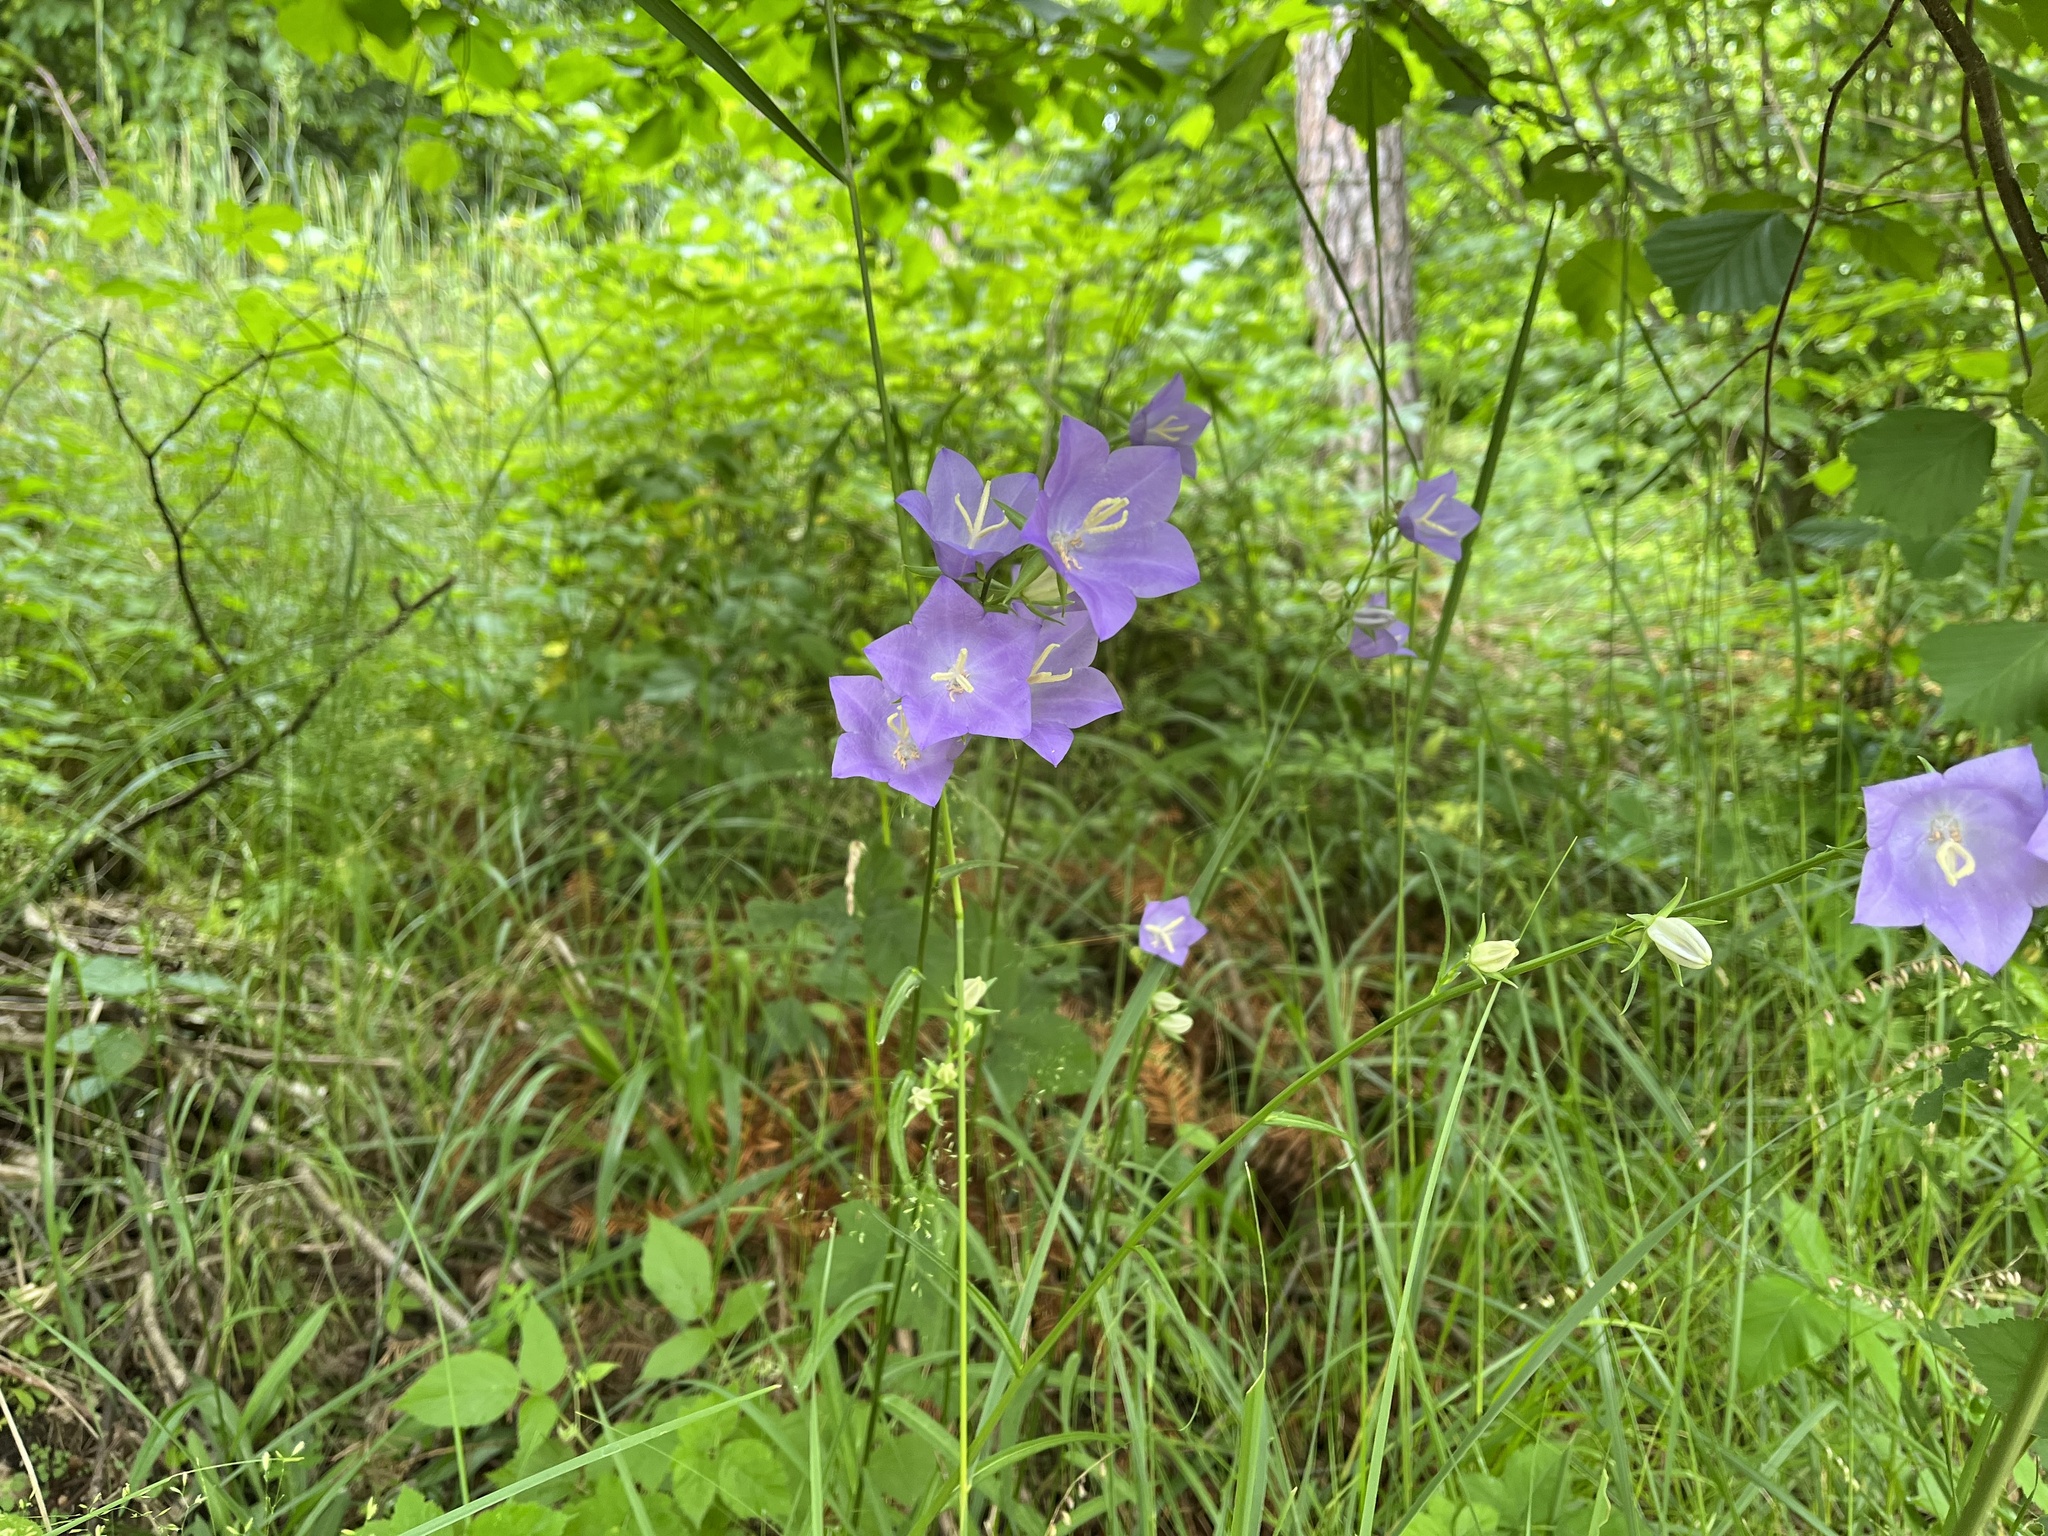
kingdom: Plantae
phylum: Tracheophyta
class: Magnoliopsida
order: Asterales
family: Campanulaceae
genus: Campanula
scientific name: Campanula persicifolia
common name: Peach-leaved bellflower
